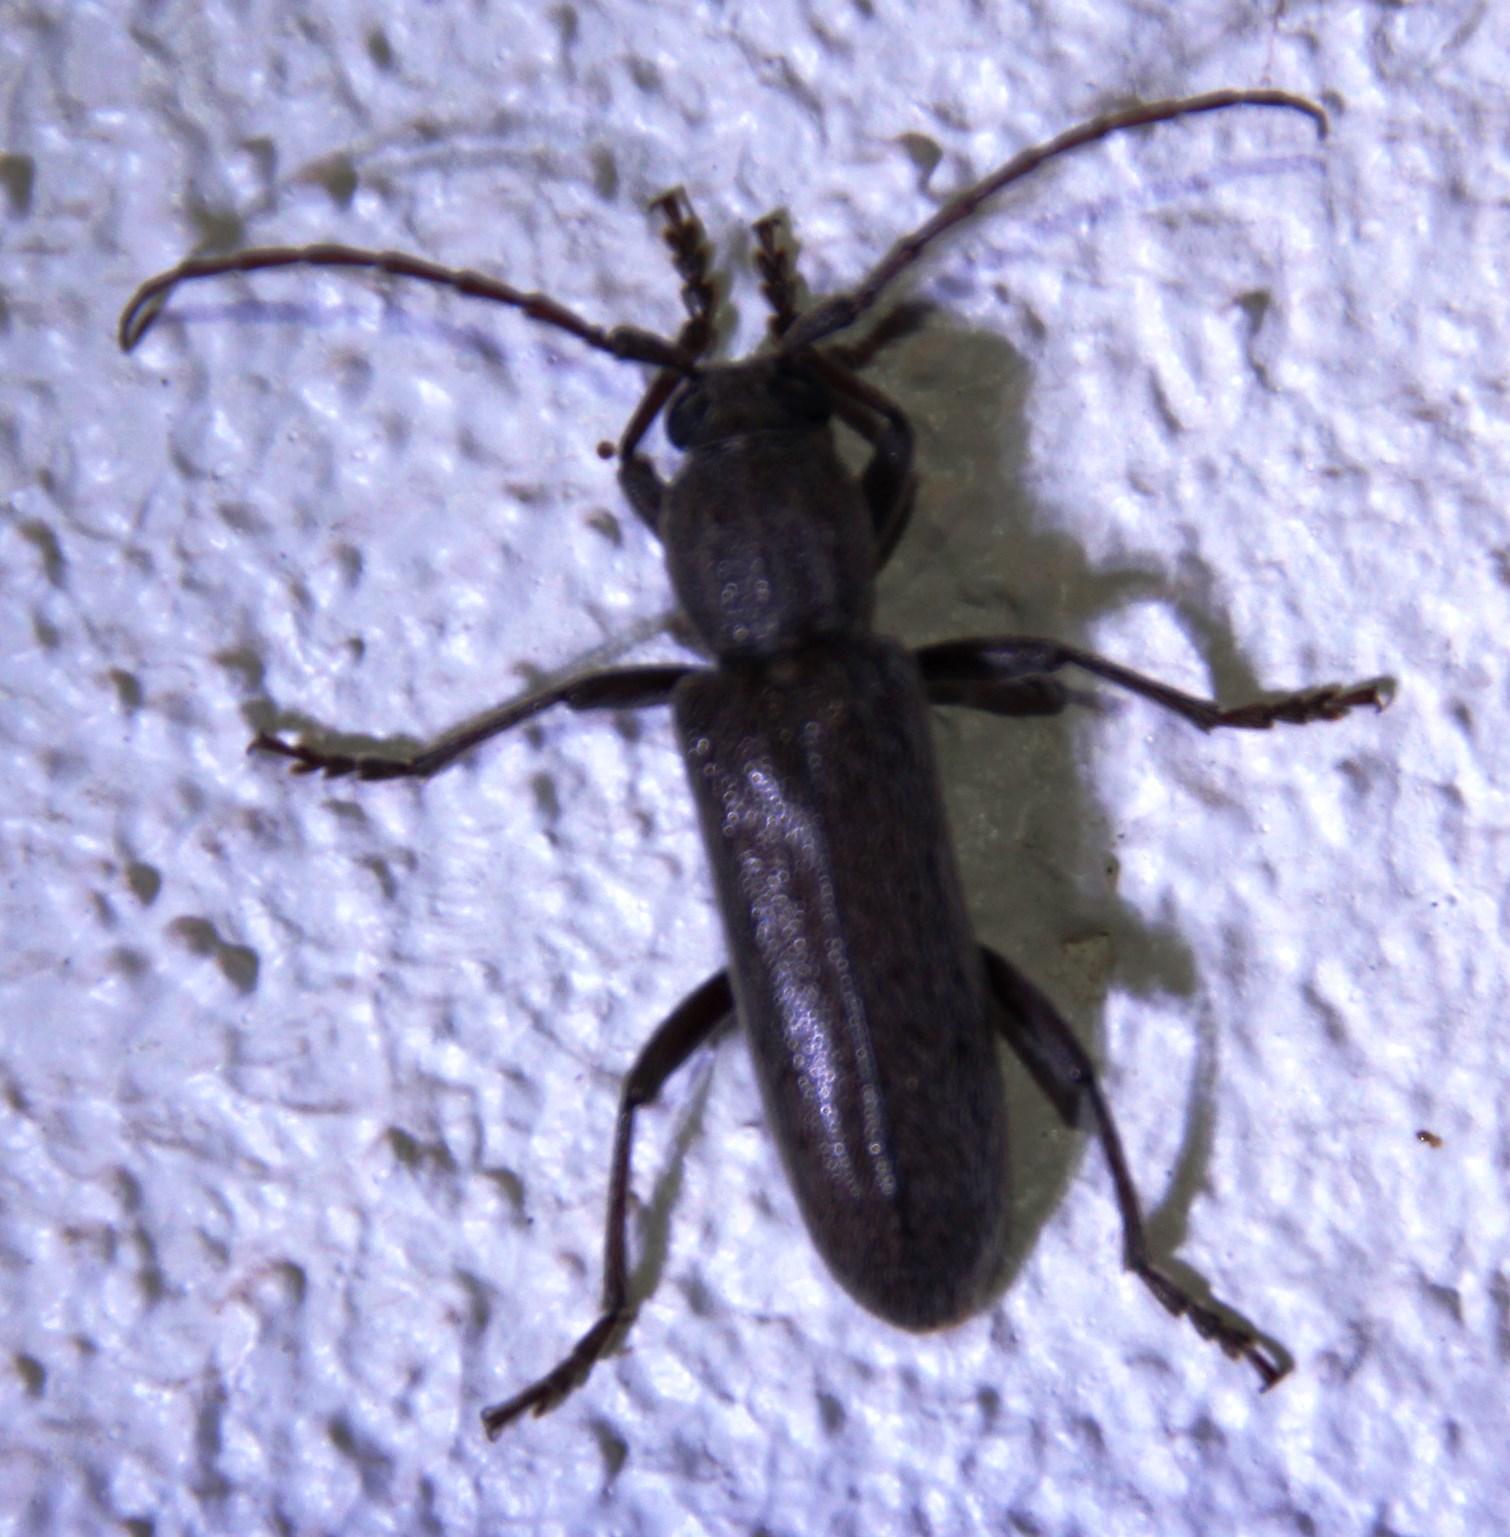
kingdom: Animalia
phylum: Arthropoda
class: Insecta
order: Coleoptera
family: Cerambycidae
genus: Garnierius
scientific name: Garnierius werneri
